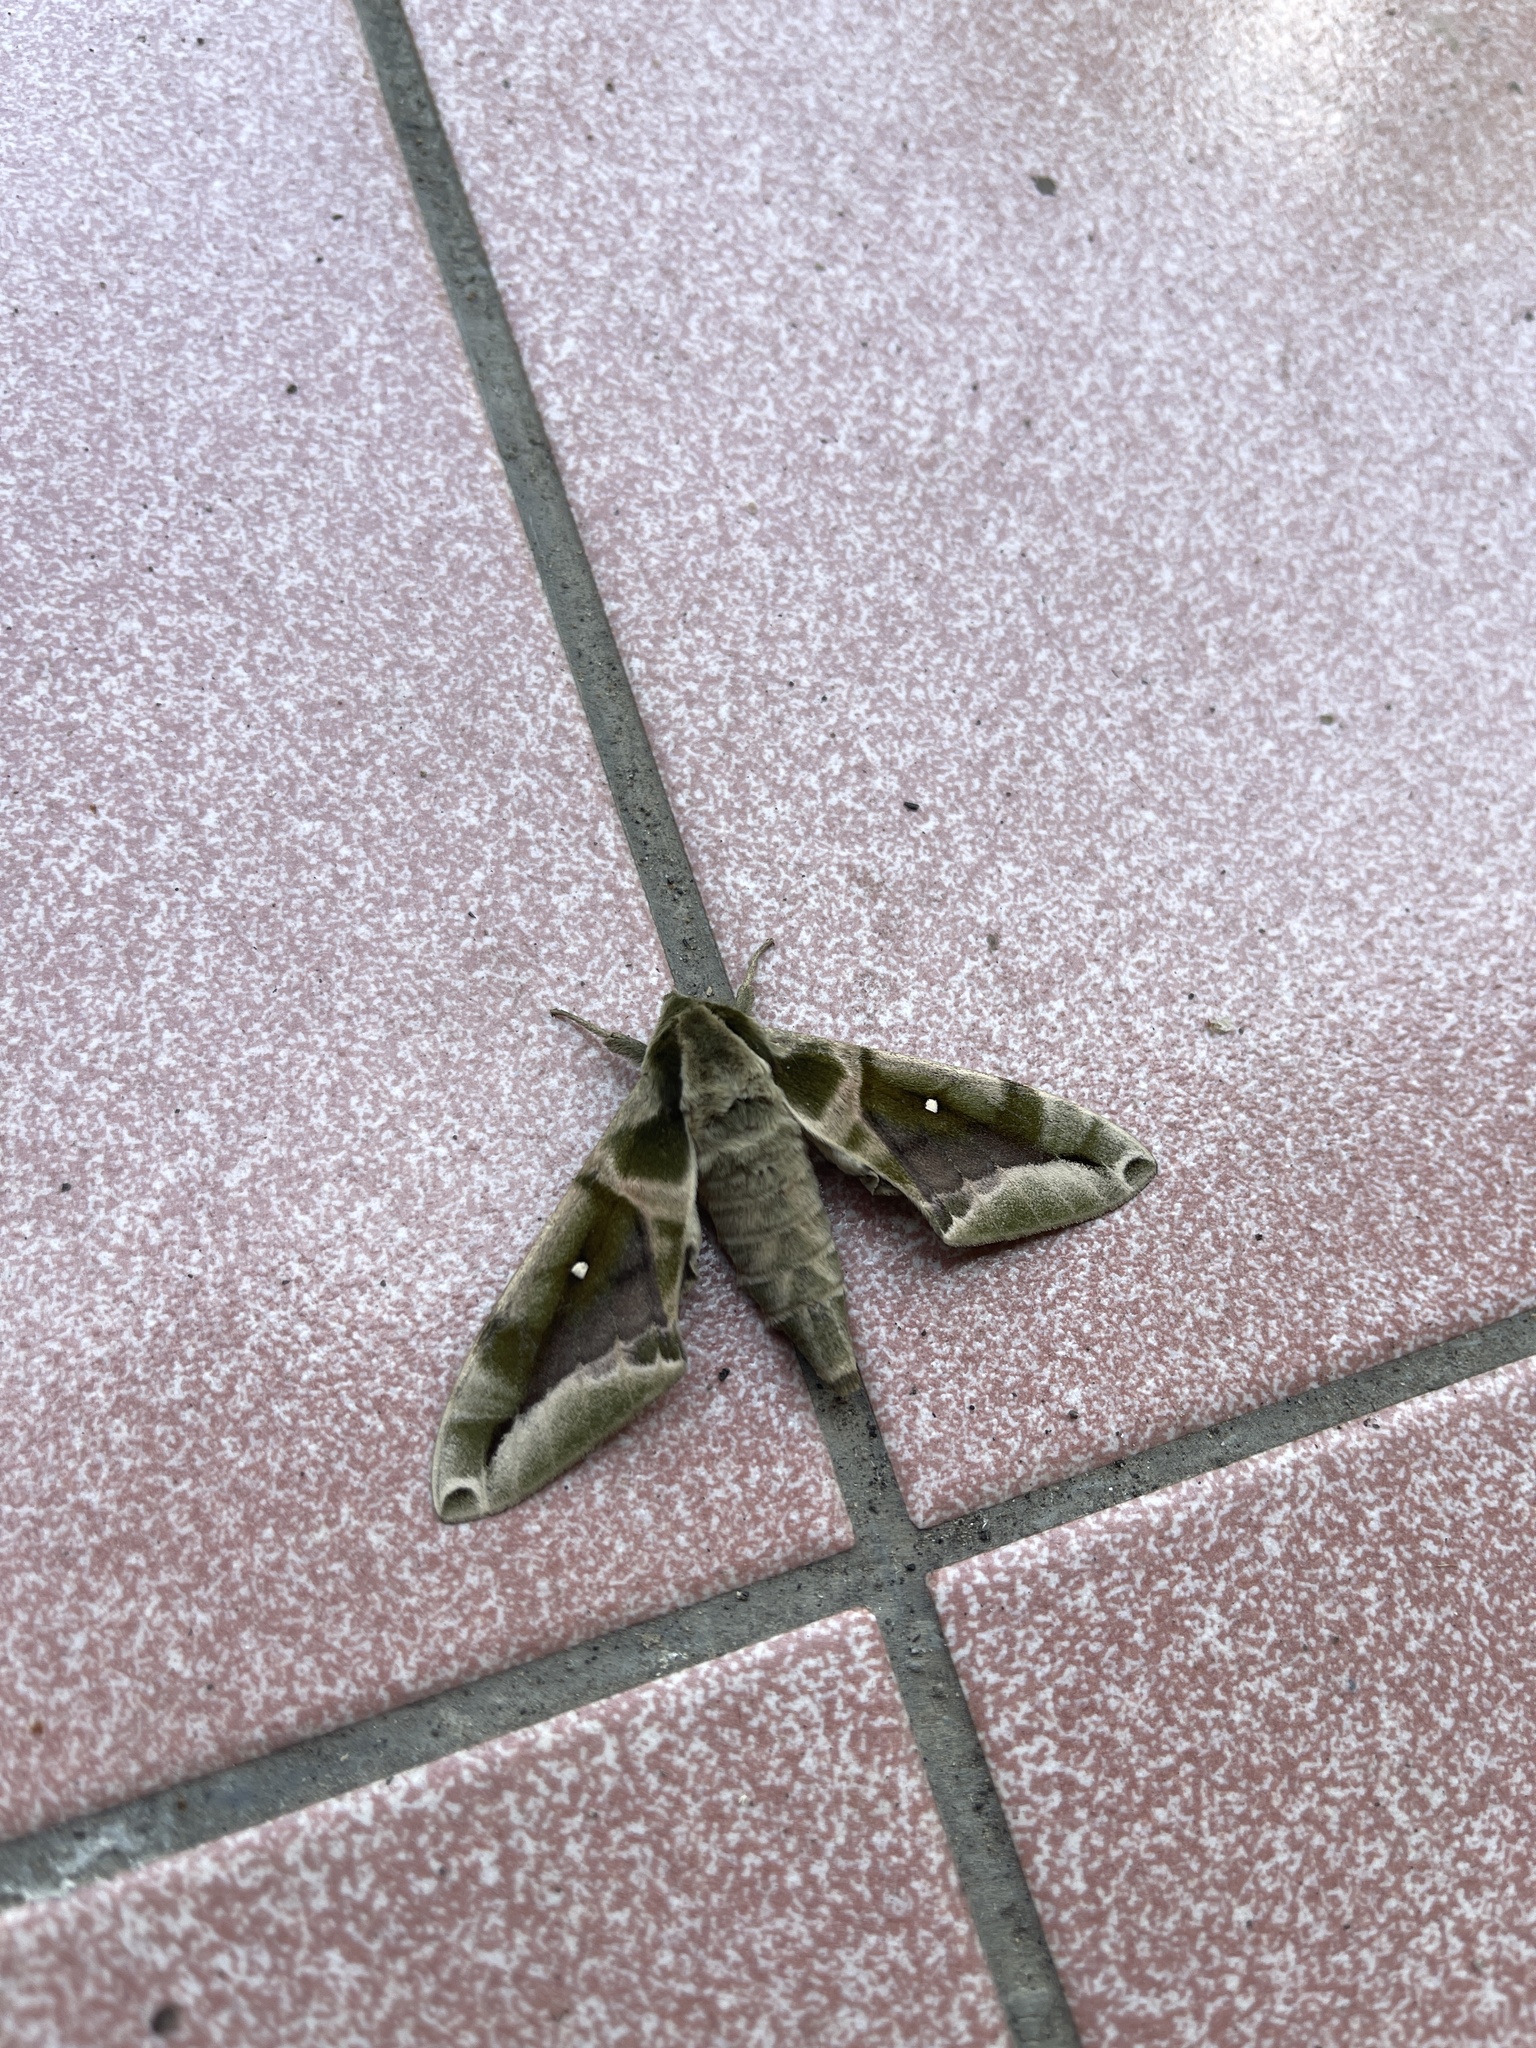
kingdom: Animalia
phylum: Arthropoda
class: Insecta
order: Lepidoptera
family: Sphingidae
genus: Parum
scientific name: Parum colligata
